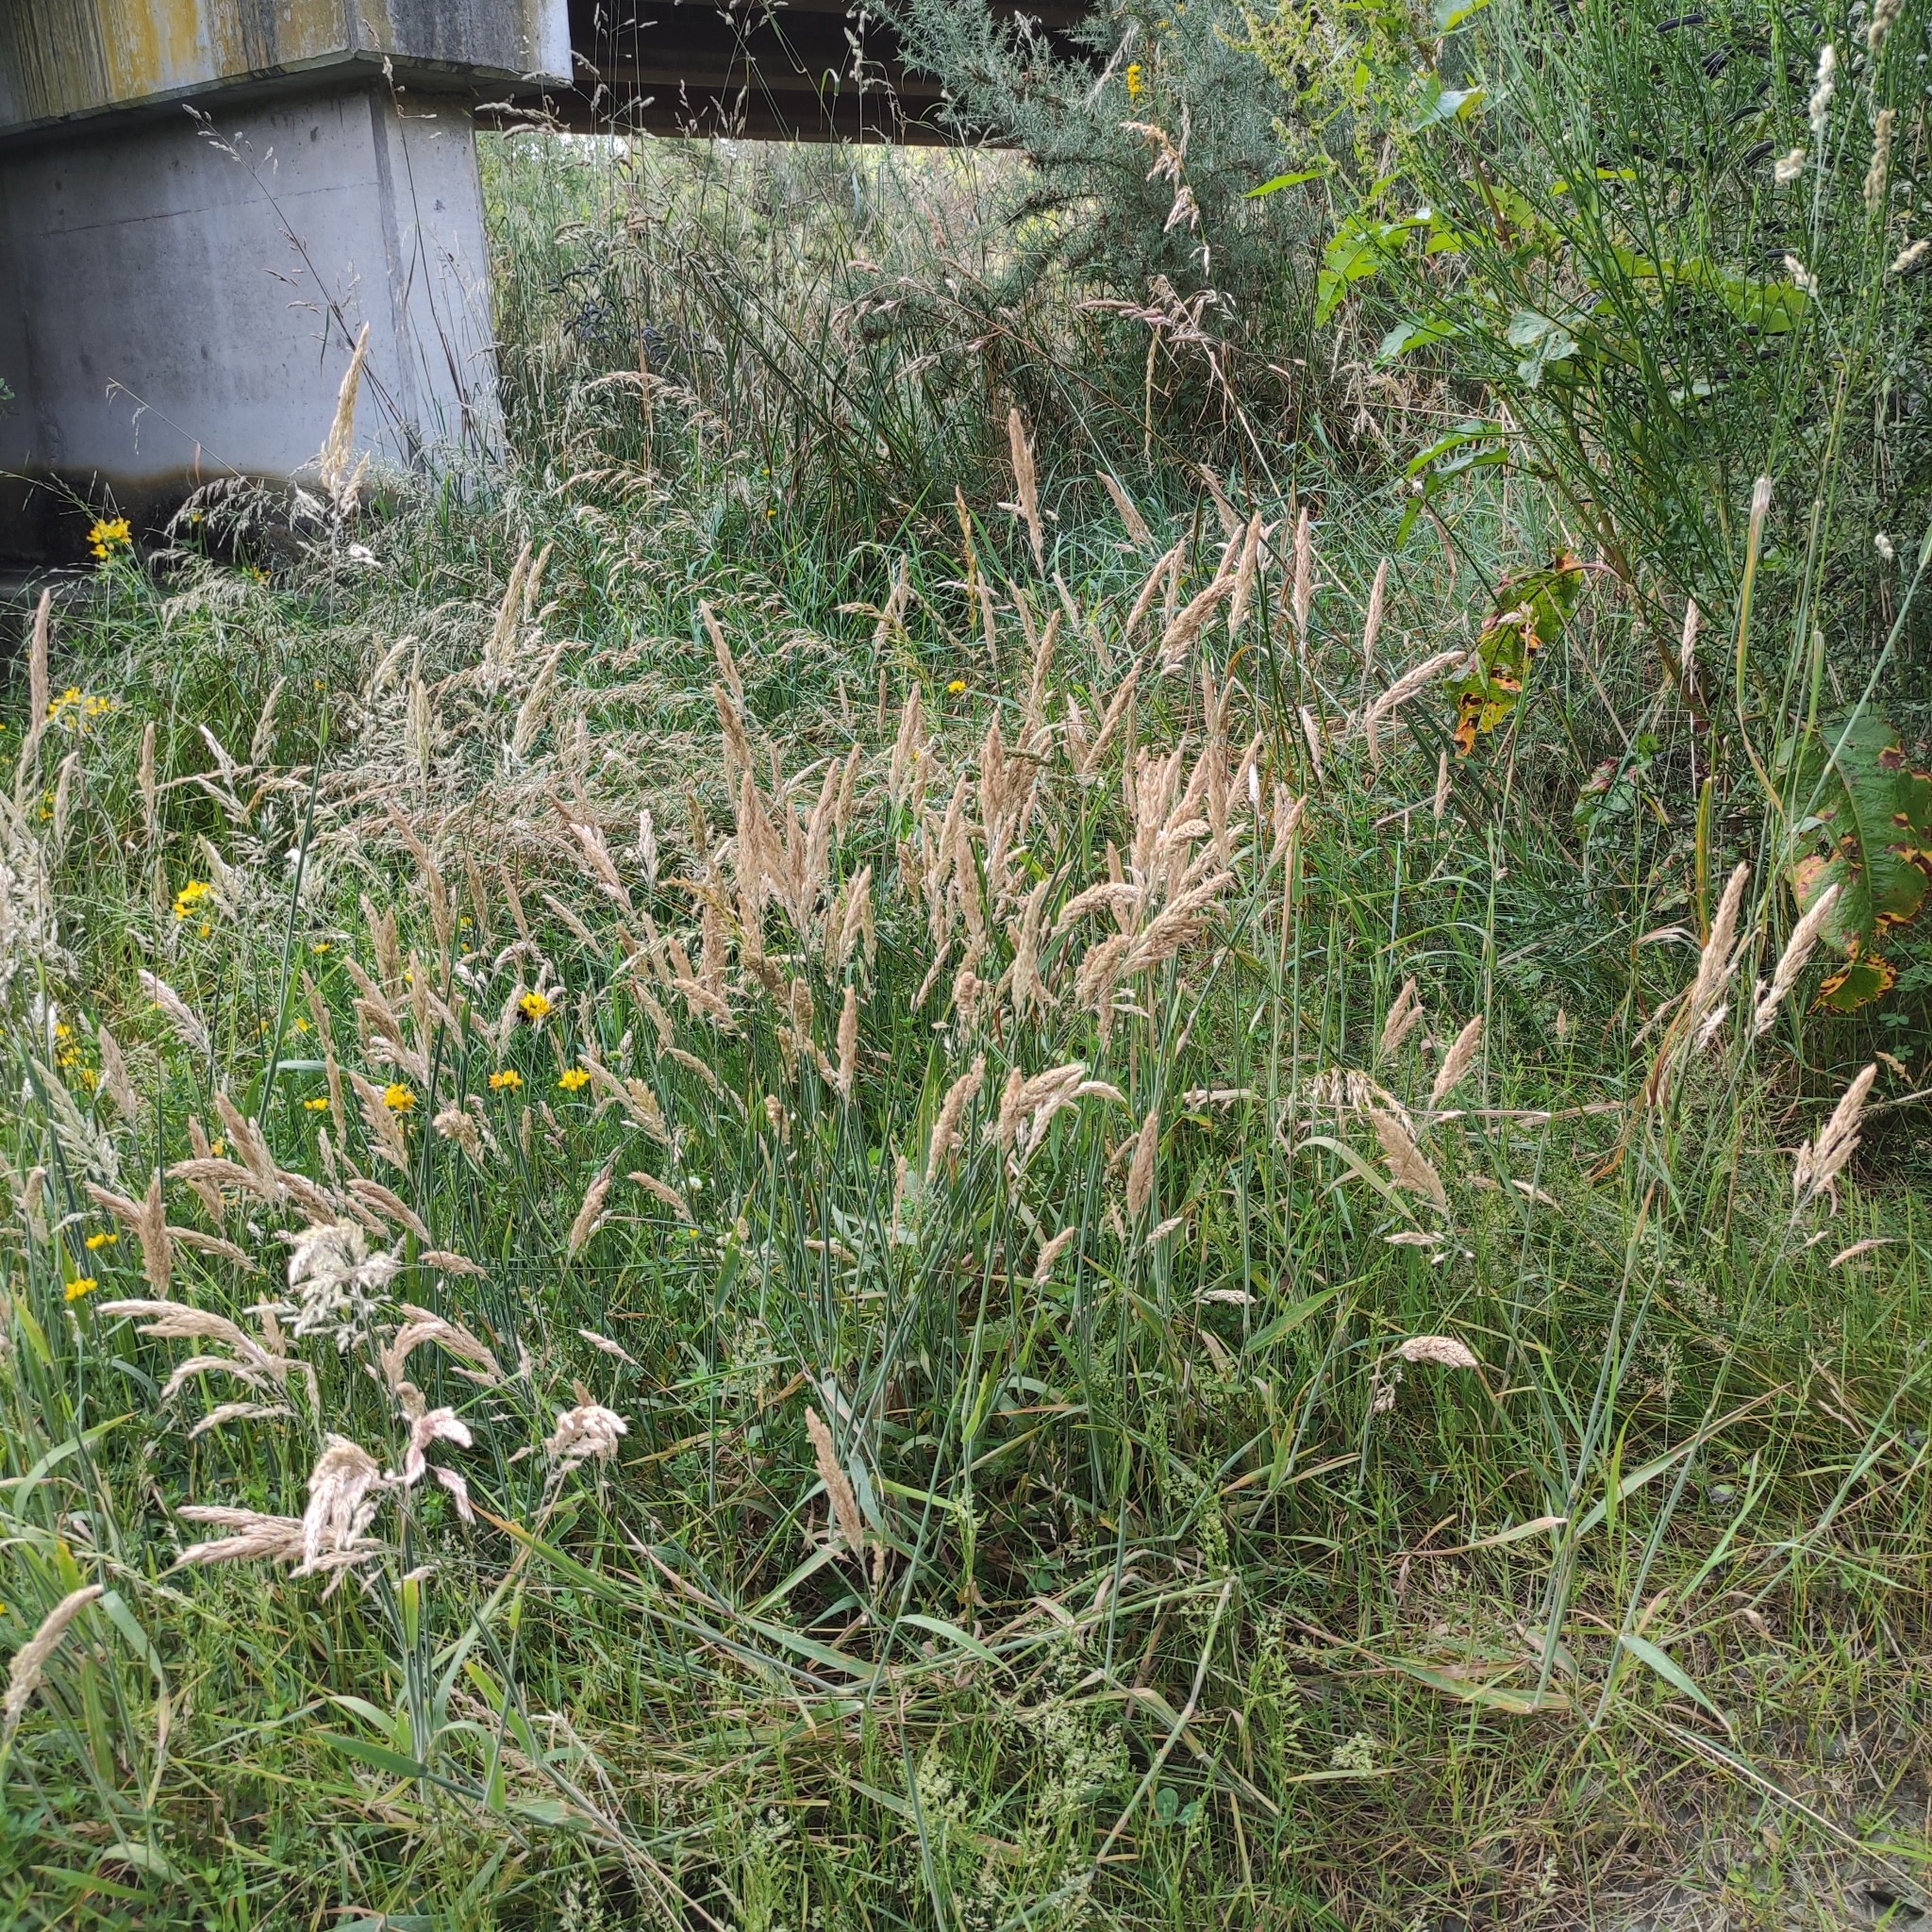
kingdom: Plantae
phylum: Tracheophyta
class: Liliopsida
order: Poales
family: Poaceae
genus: Holcus
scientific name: Holcus lanatus
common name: Yorkshire-fog
